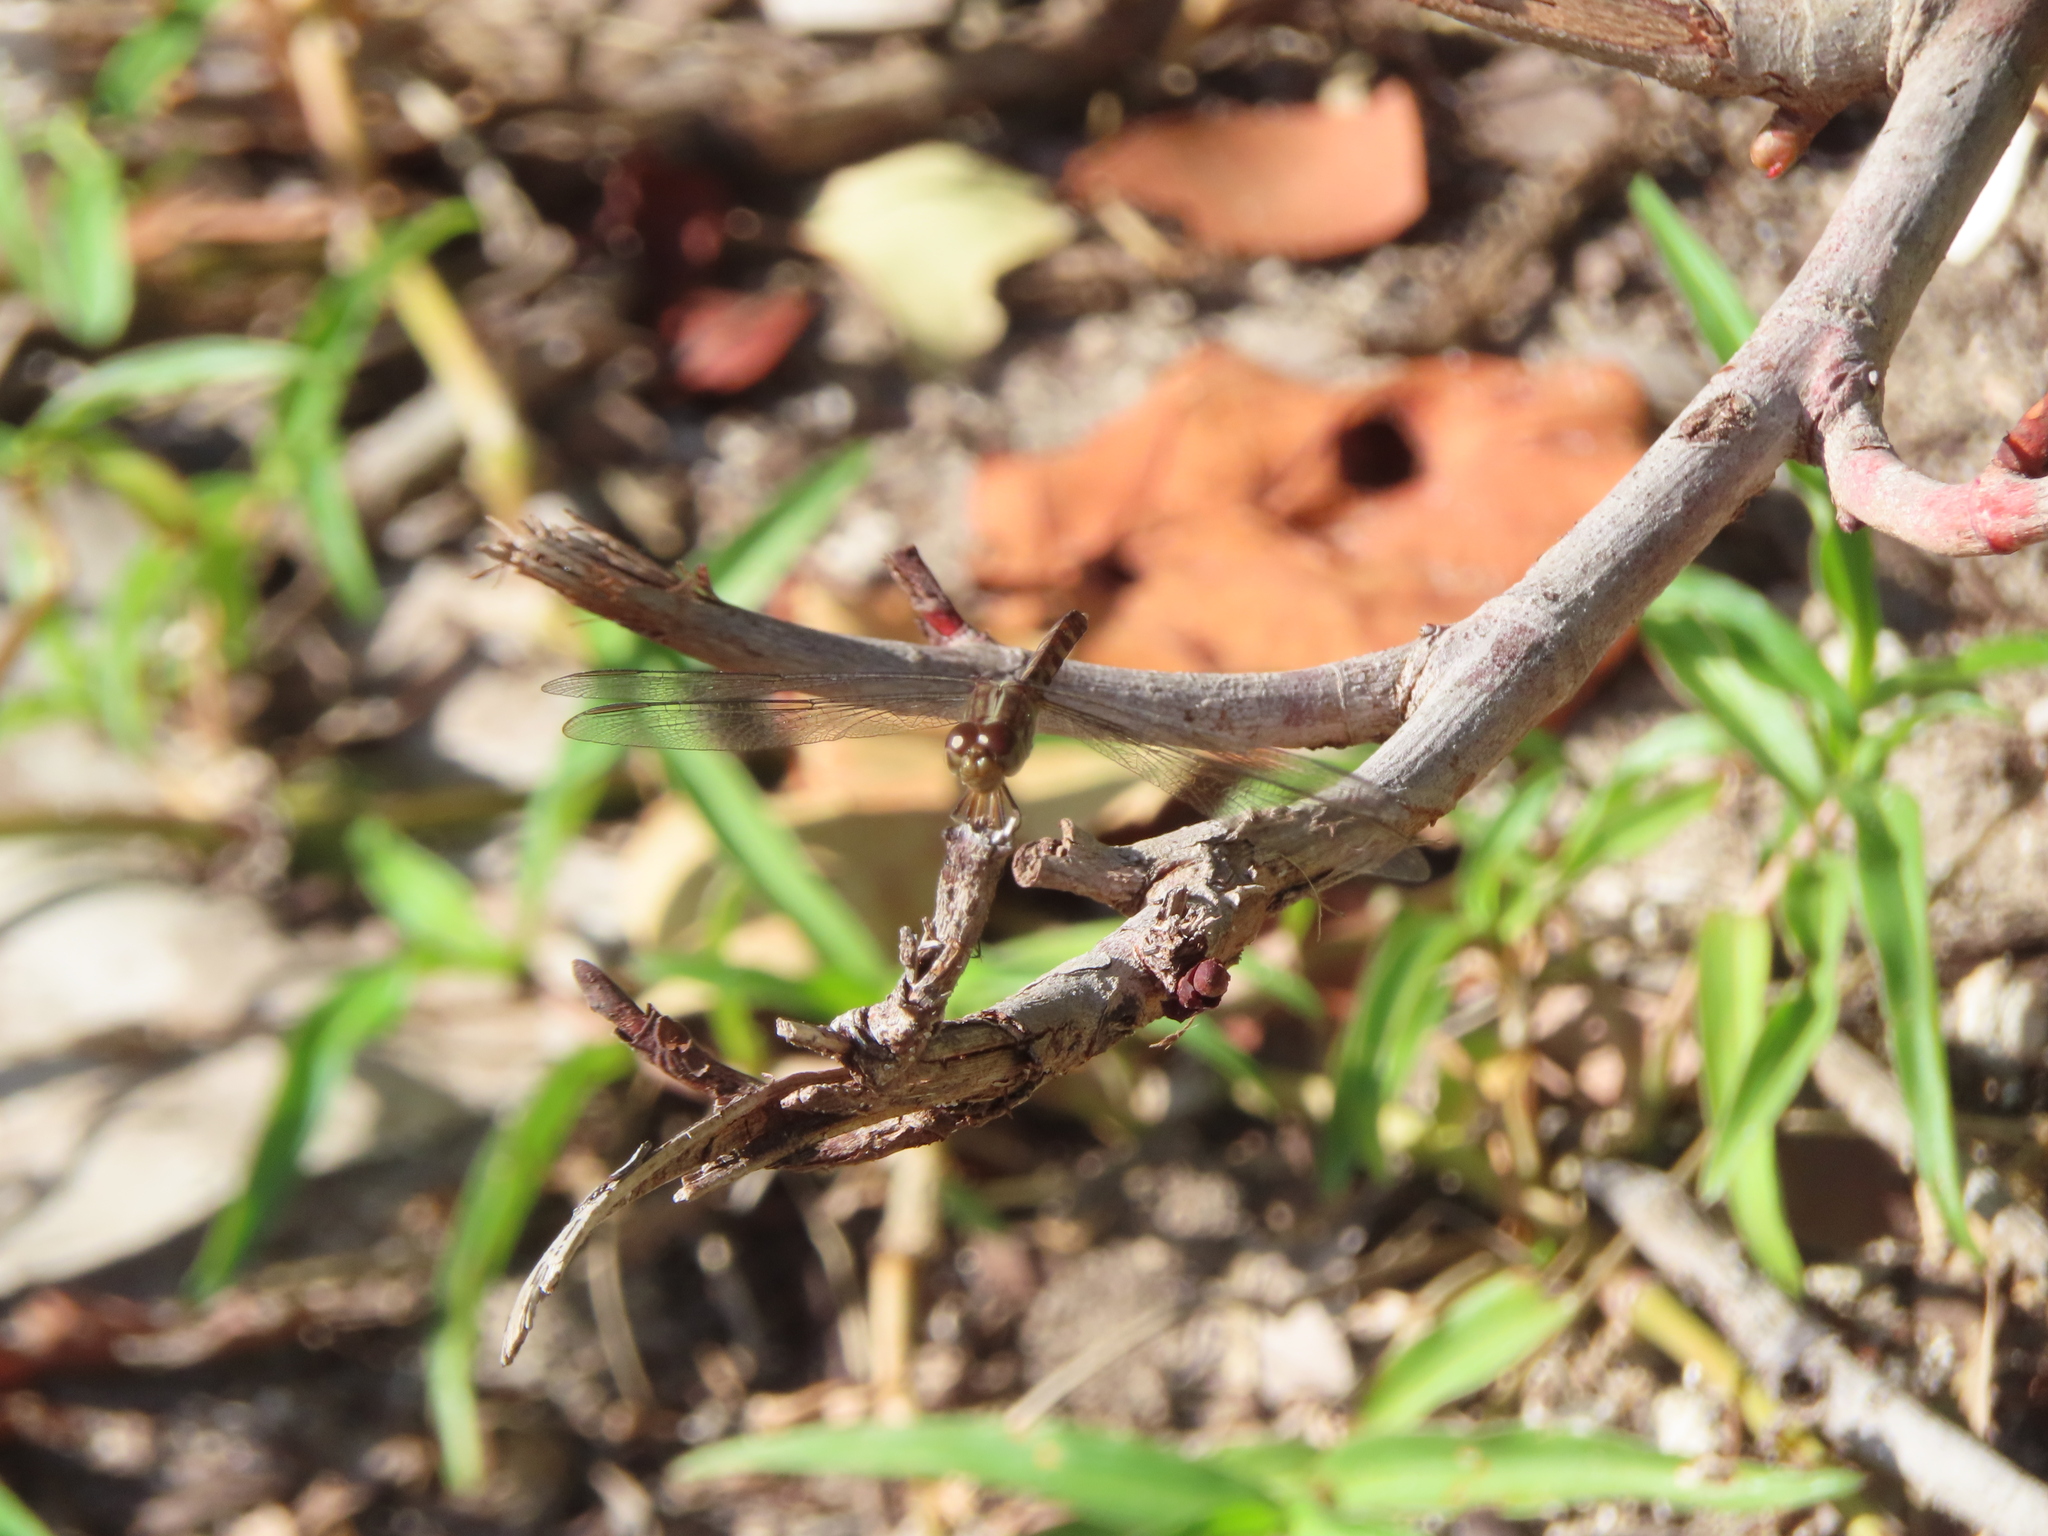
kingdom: Animalia
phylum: Arthropoda
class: Insecta
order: Odonata
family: Libellulidae
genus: Erythrodiplax
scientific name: Erythrodiplax umbrata
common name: Band-winged dragonlet
